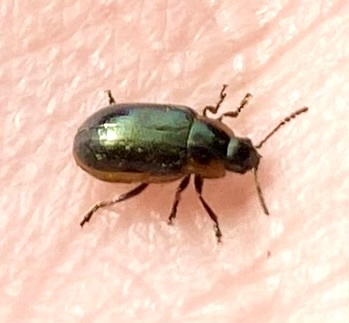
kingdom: Animalia
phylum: Arthropoda
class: Insecta
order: Coleoptera
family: Chrysomelidae
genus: Prasocuris
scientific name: Prasocuris marginella
